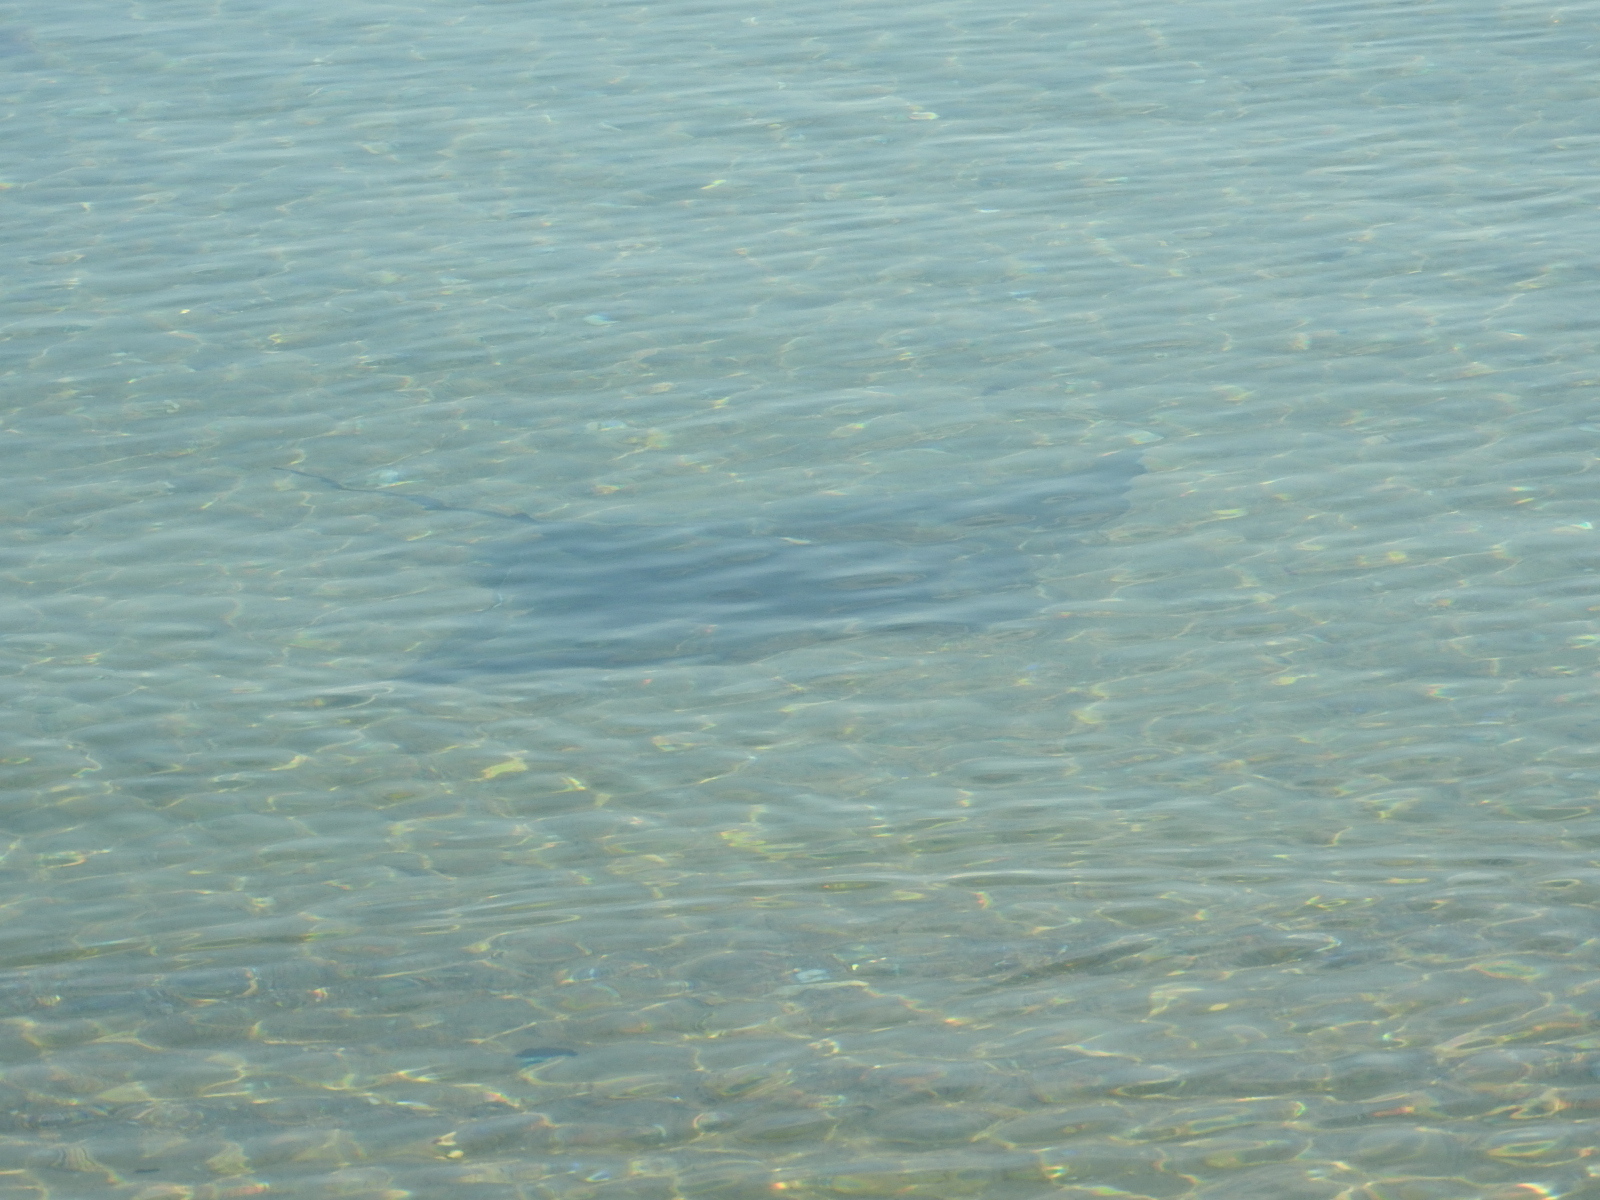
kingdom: Animalia
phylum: Chordata
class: Elasmobranchii
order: Myliobatiformes
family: Myliobatidae
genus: Myliobatis
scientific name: Myliobatis tenuicaudatus
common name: Eagle ray
